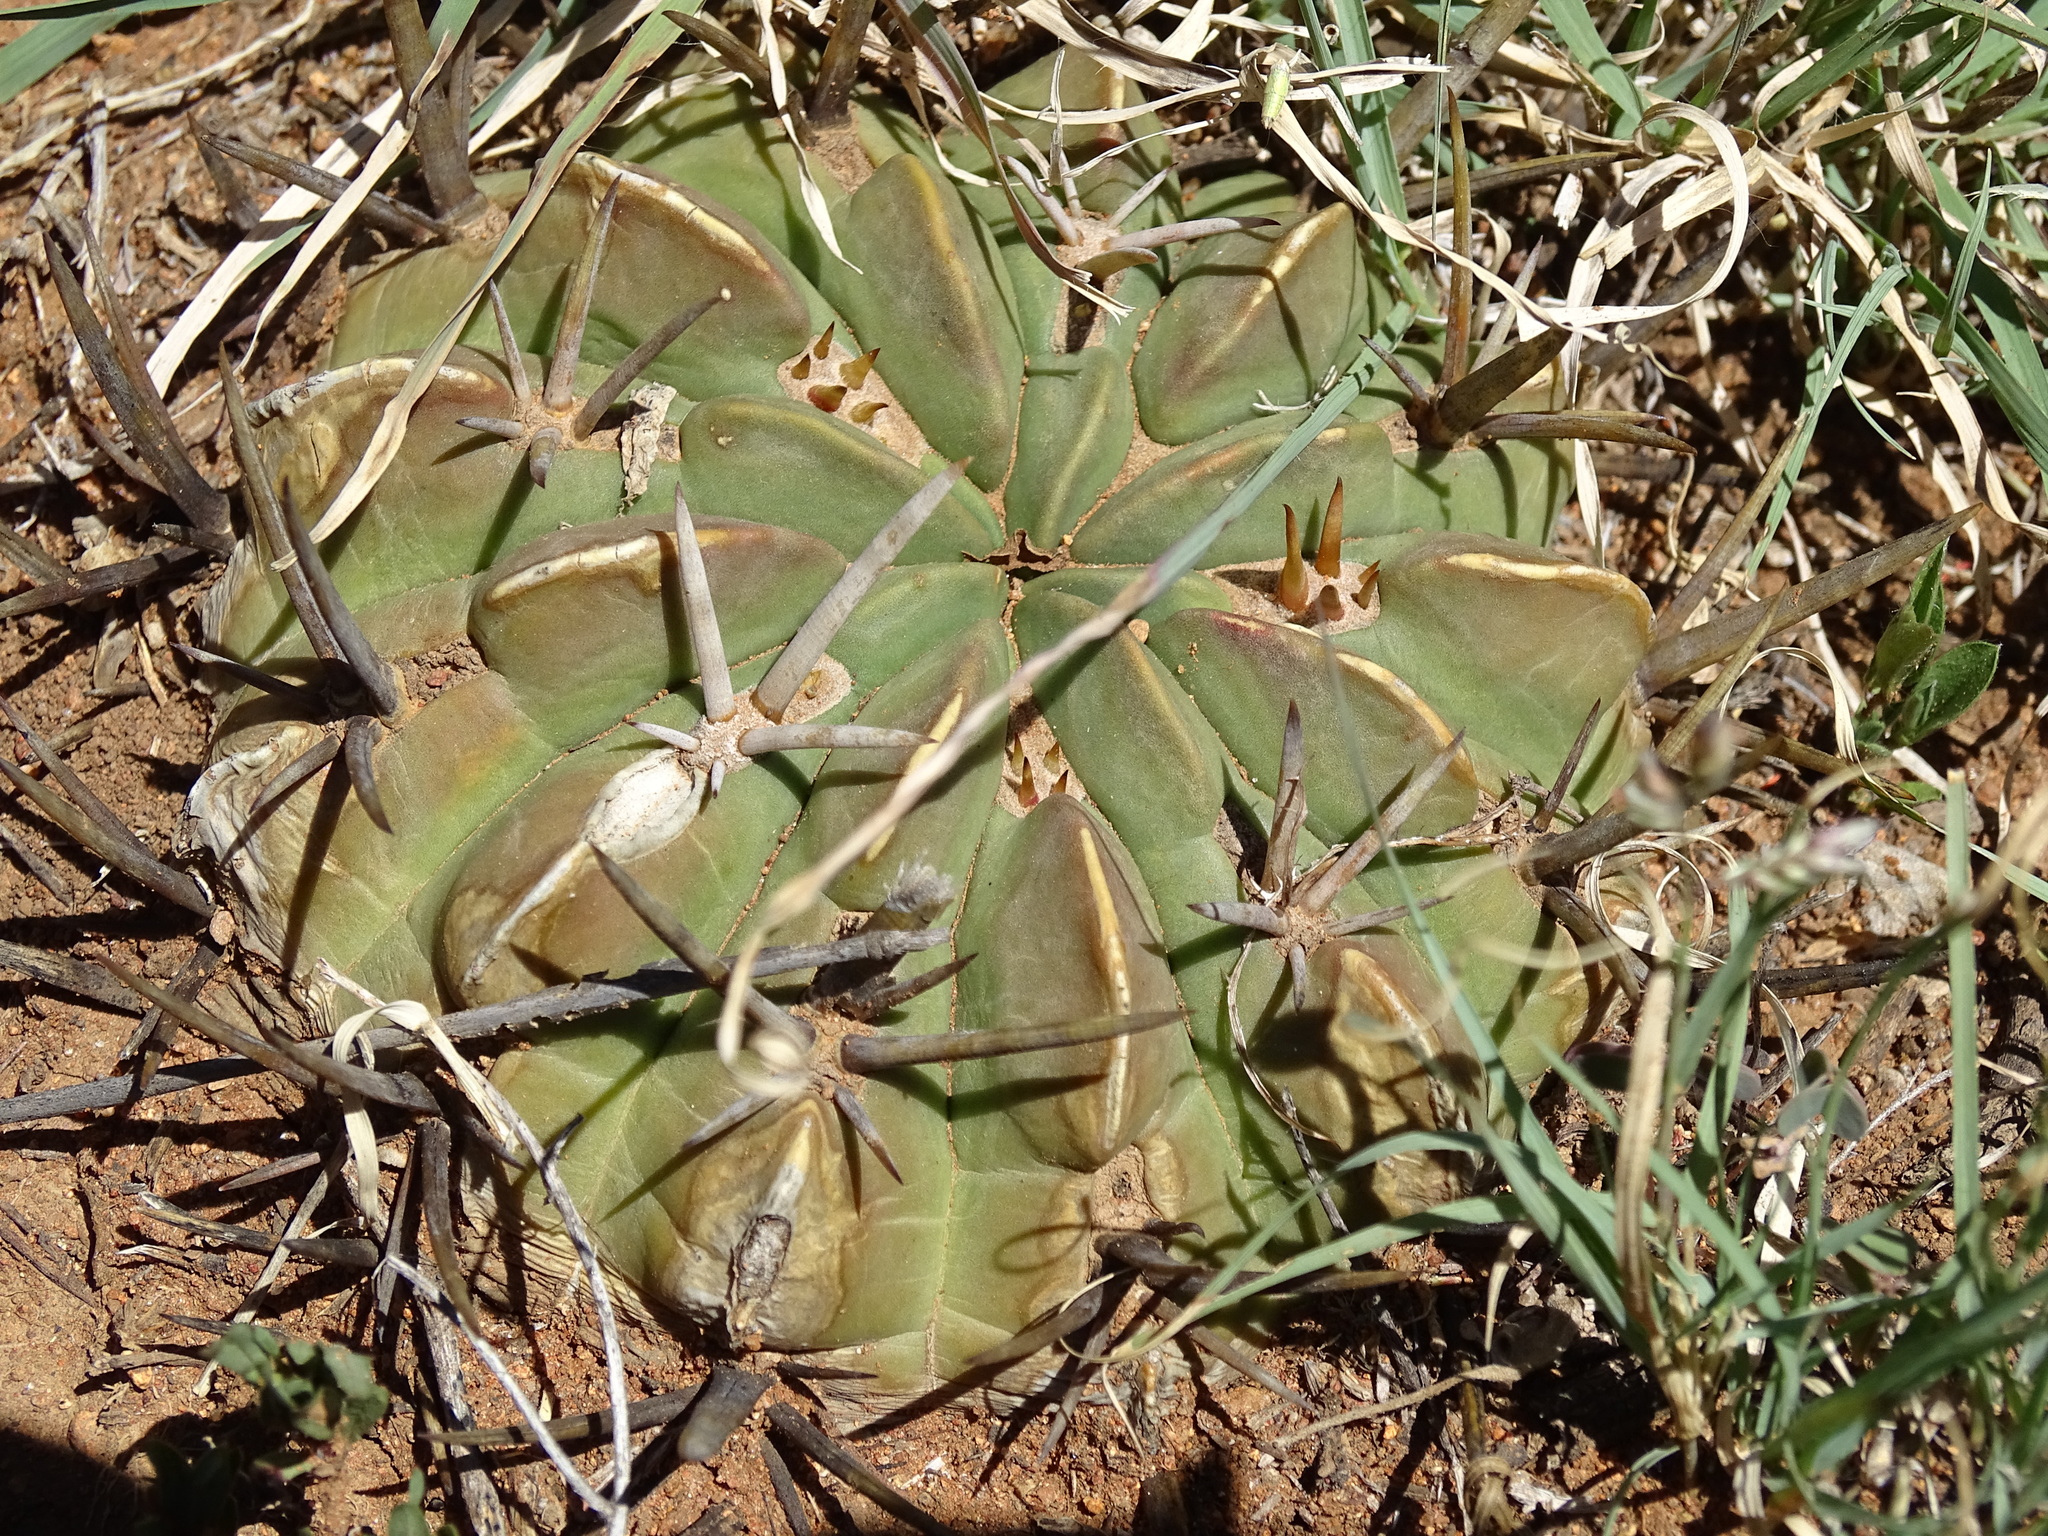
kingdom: Plantae
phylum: Tracheophyta
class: Magnoliopsida
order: Caryophyllales
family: Cactaceae
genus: Stenocactus
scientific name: Stenocactus coptonogonus
